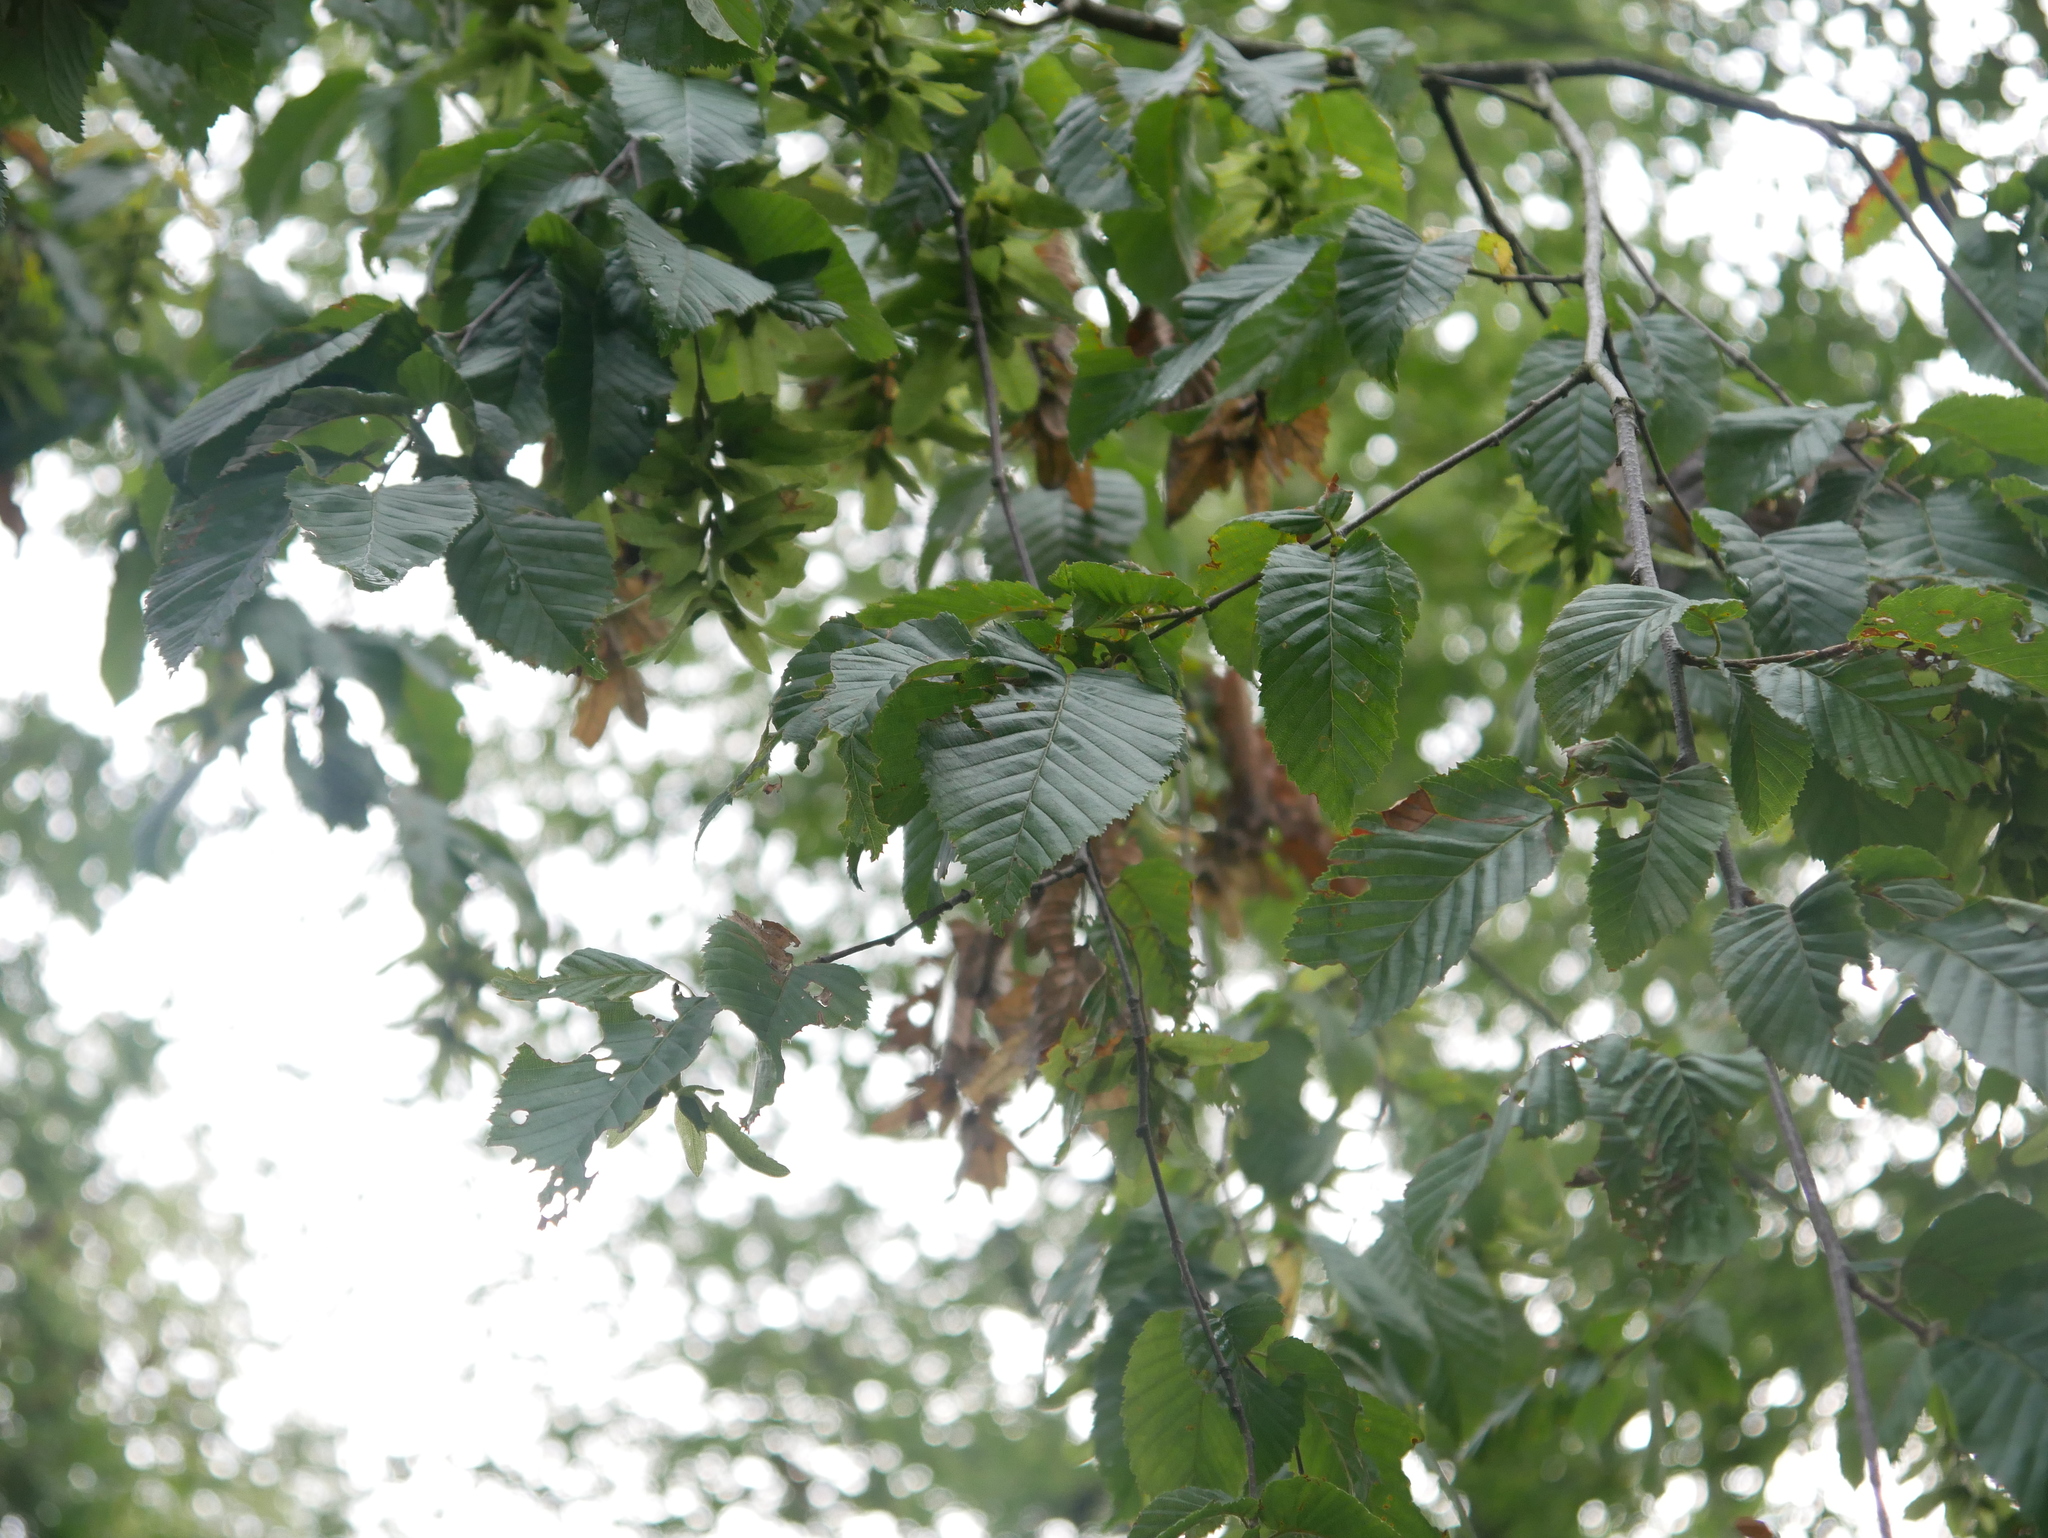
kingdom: Plantae
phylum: Tracheophyta
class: Magnoliopsida
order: Fagales
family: Betulaceae
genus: Carpinus
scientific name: Carpinus betulus
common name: Hornbeam
